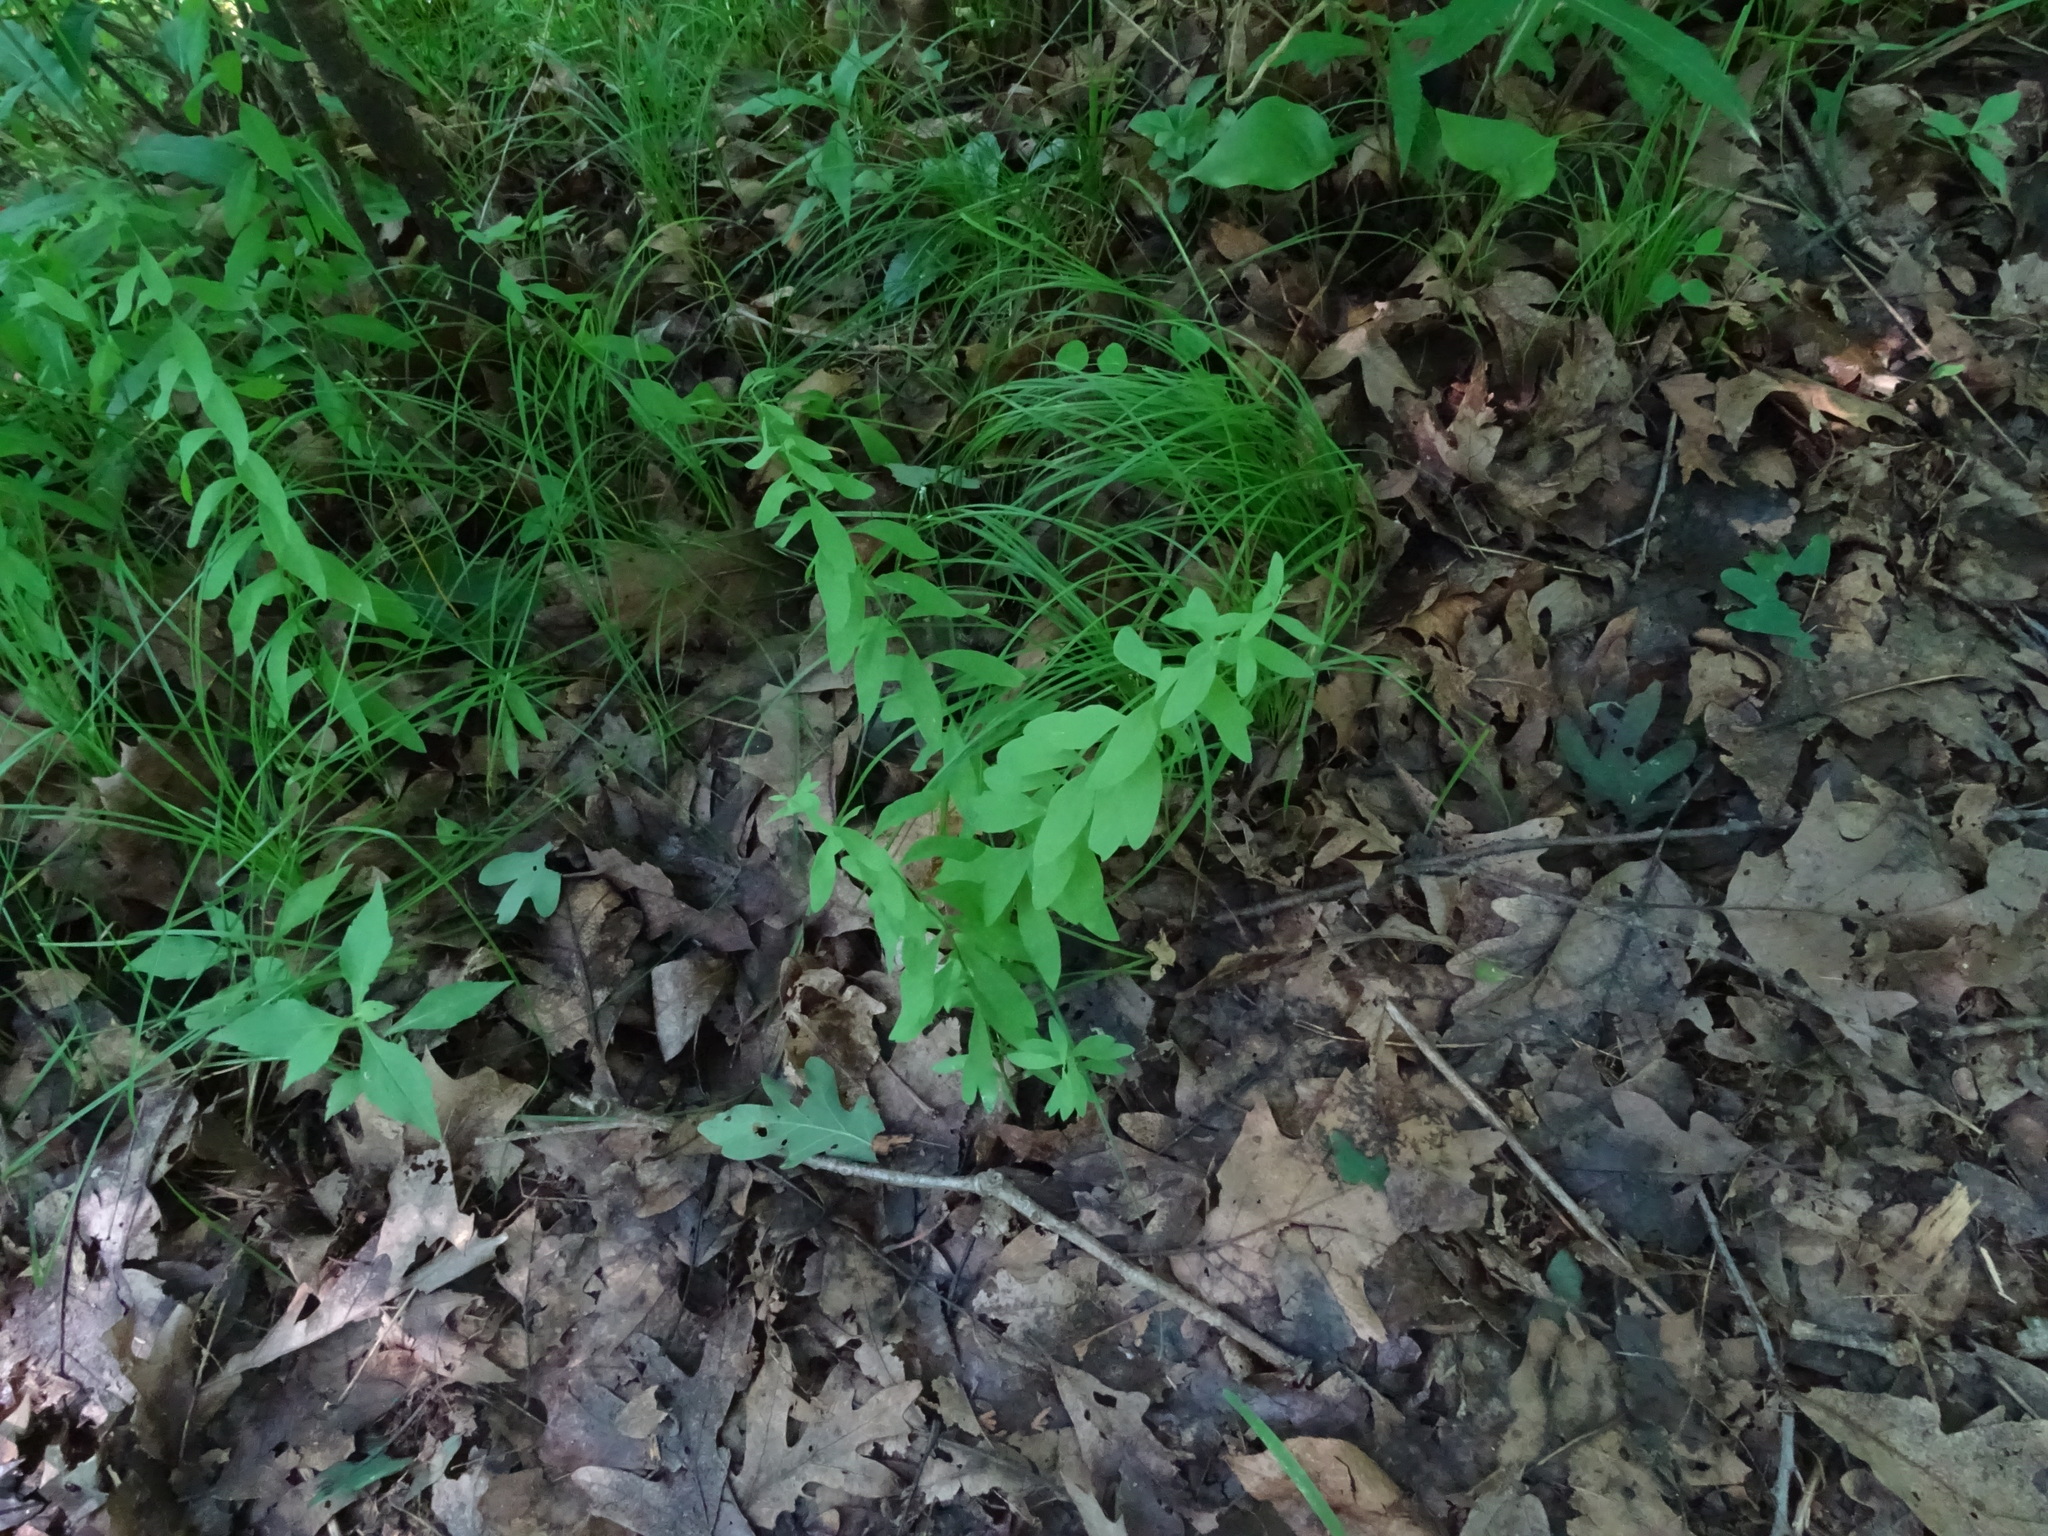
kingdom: Plantae
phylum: Tracheophyta
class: Magnoliopsida
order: Santalales
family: Comandraceae
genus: Comandra
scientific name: Comandra umbellata
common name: Bastard toadflax
